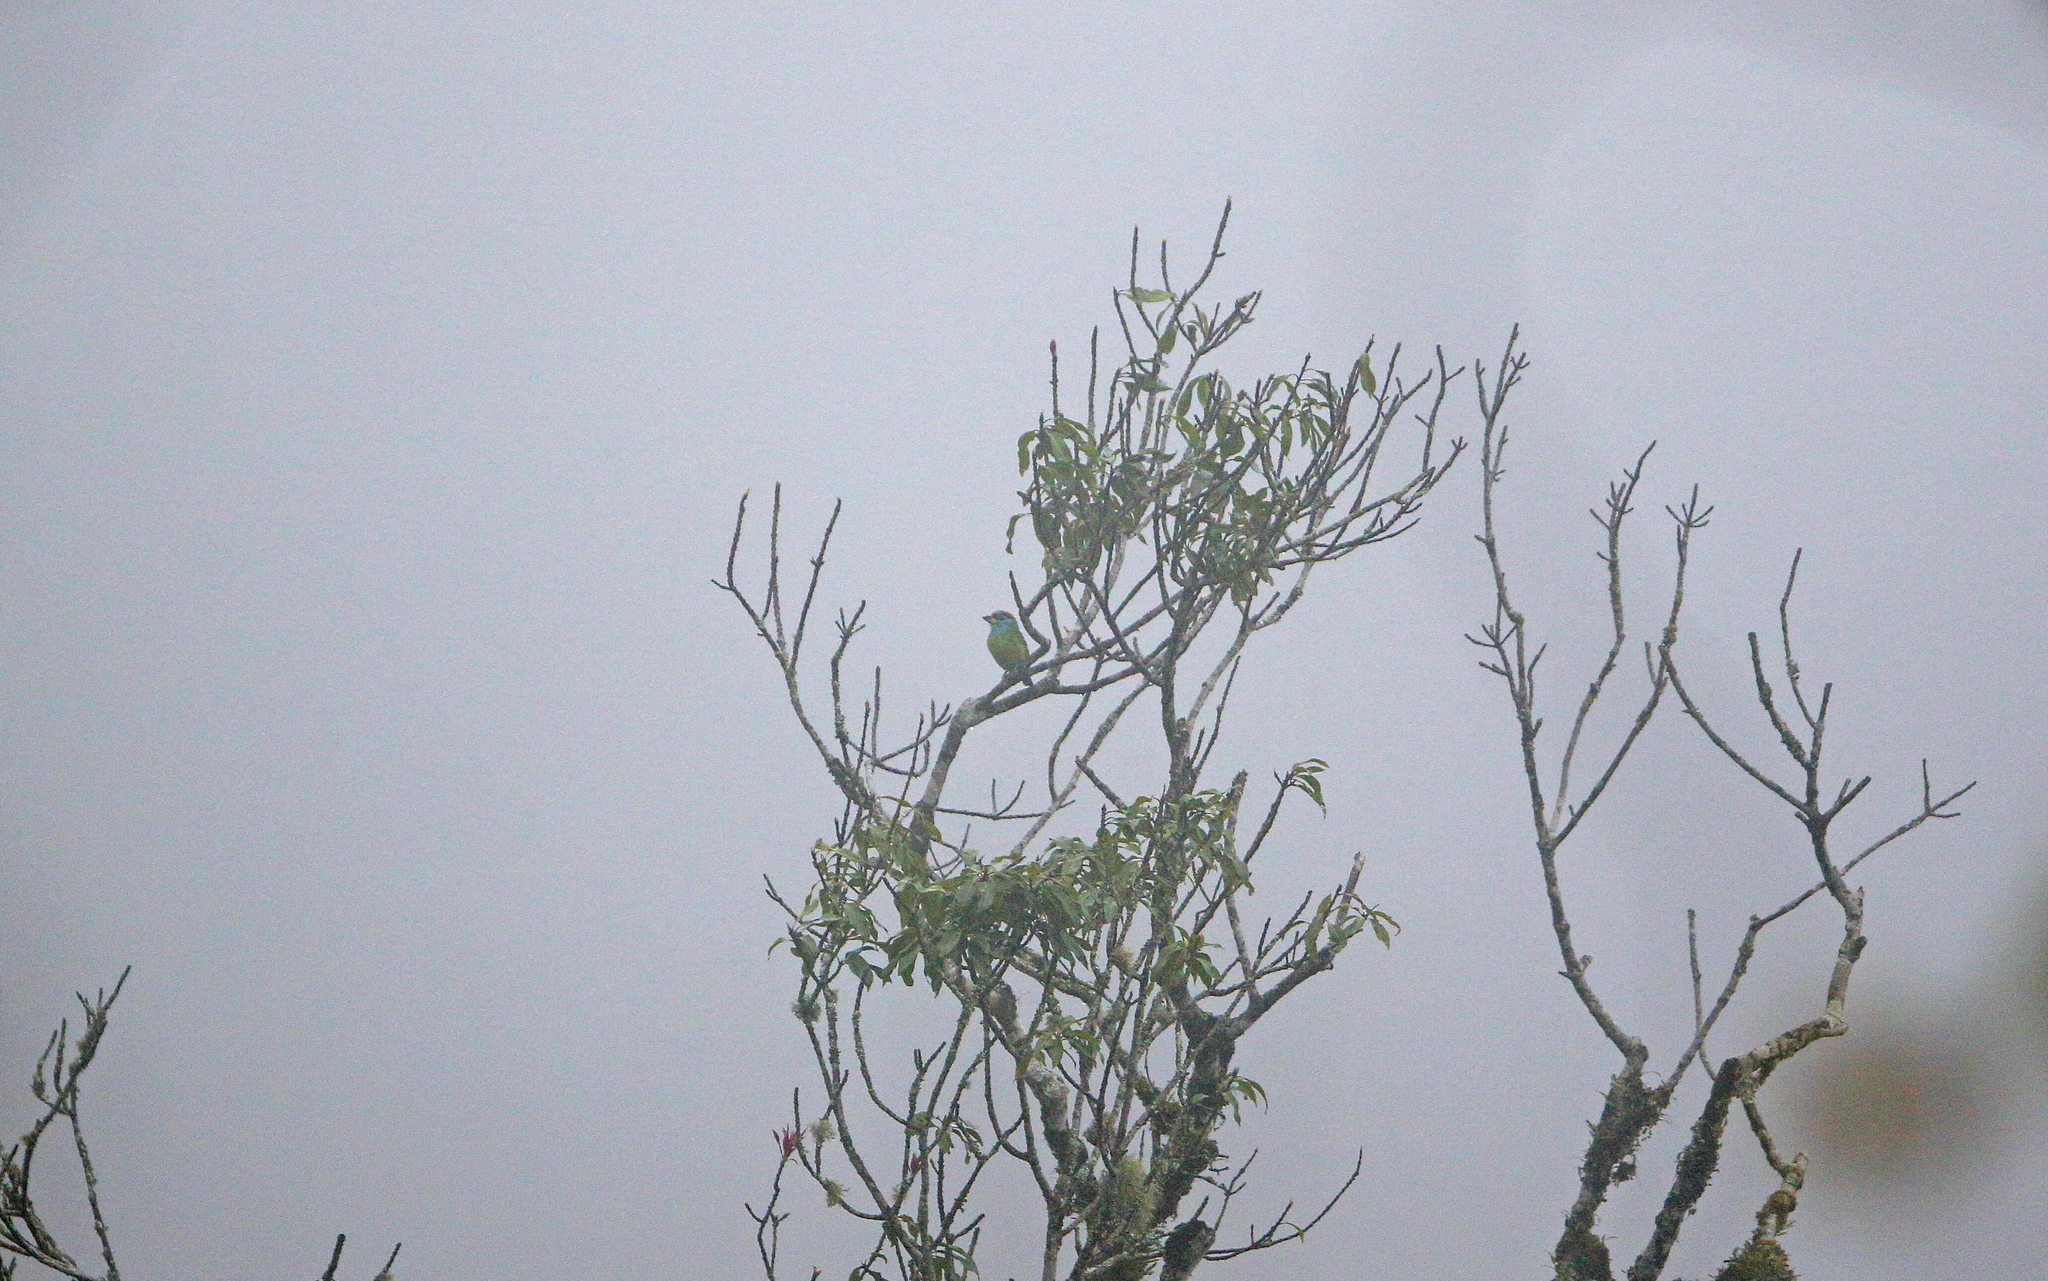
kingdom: Animalia
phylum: Chordata
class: Aves
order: Piciformes
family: Megalaimidae
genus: Psilopogon
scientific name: Psilopogon asiaticus
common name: Blue-throated barbet
